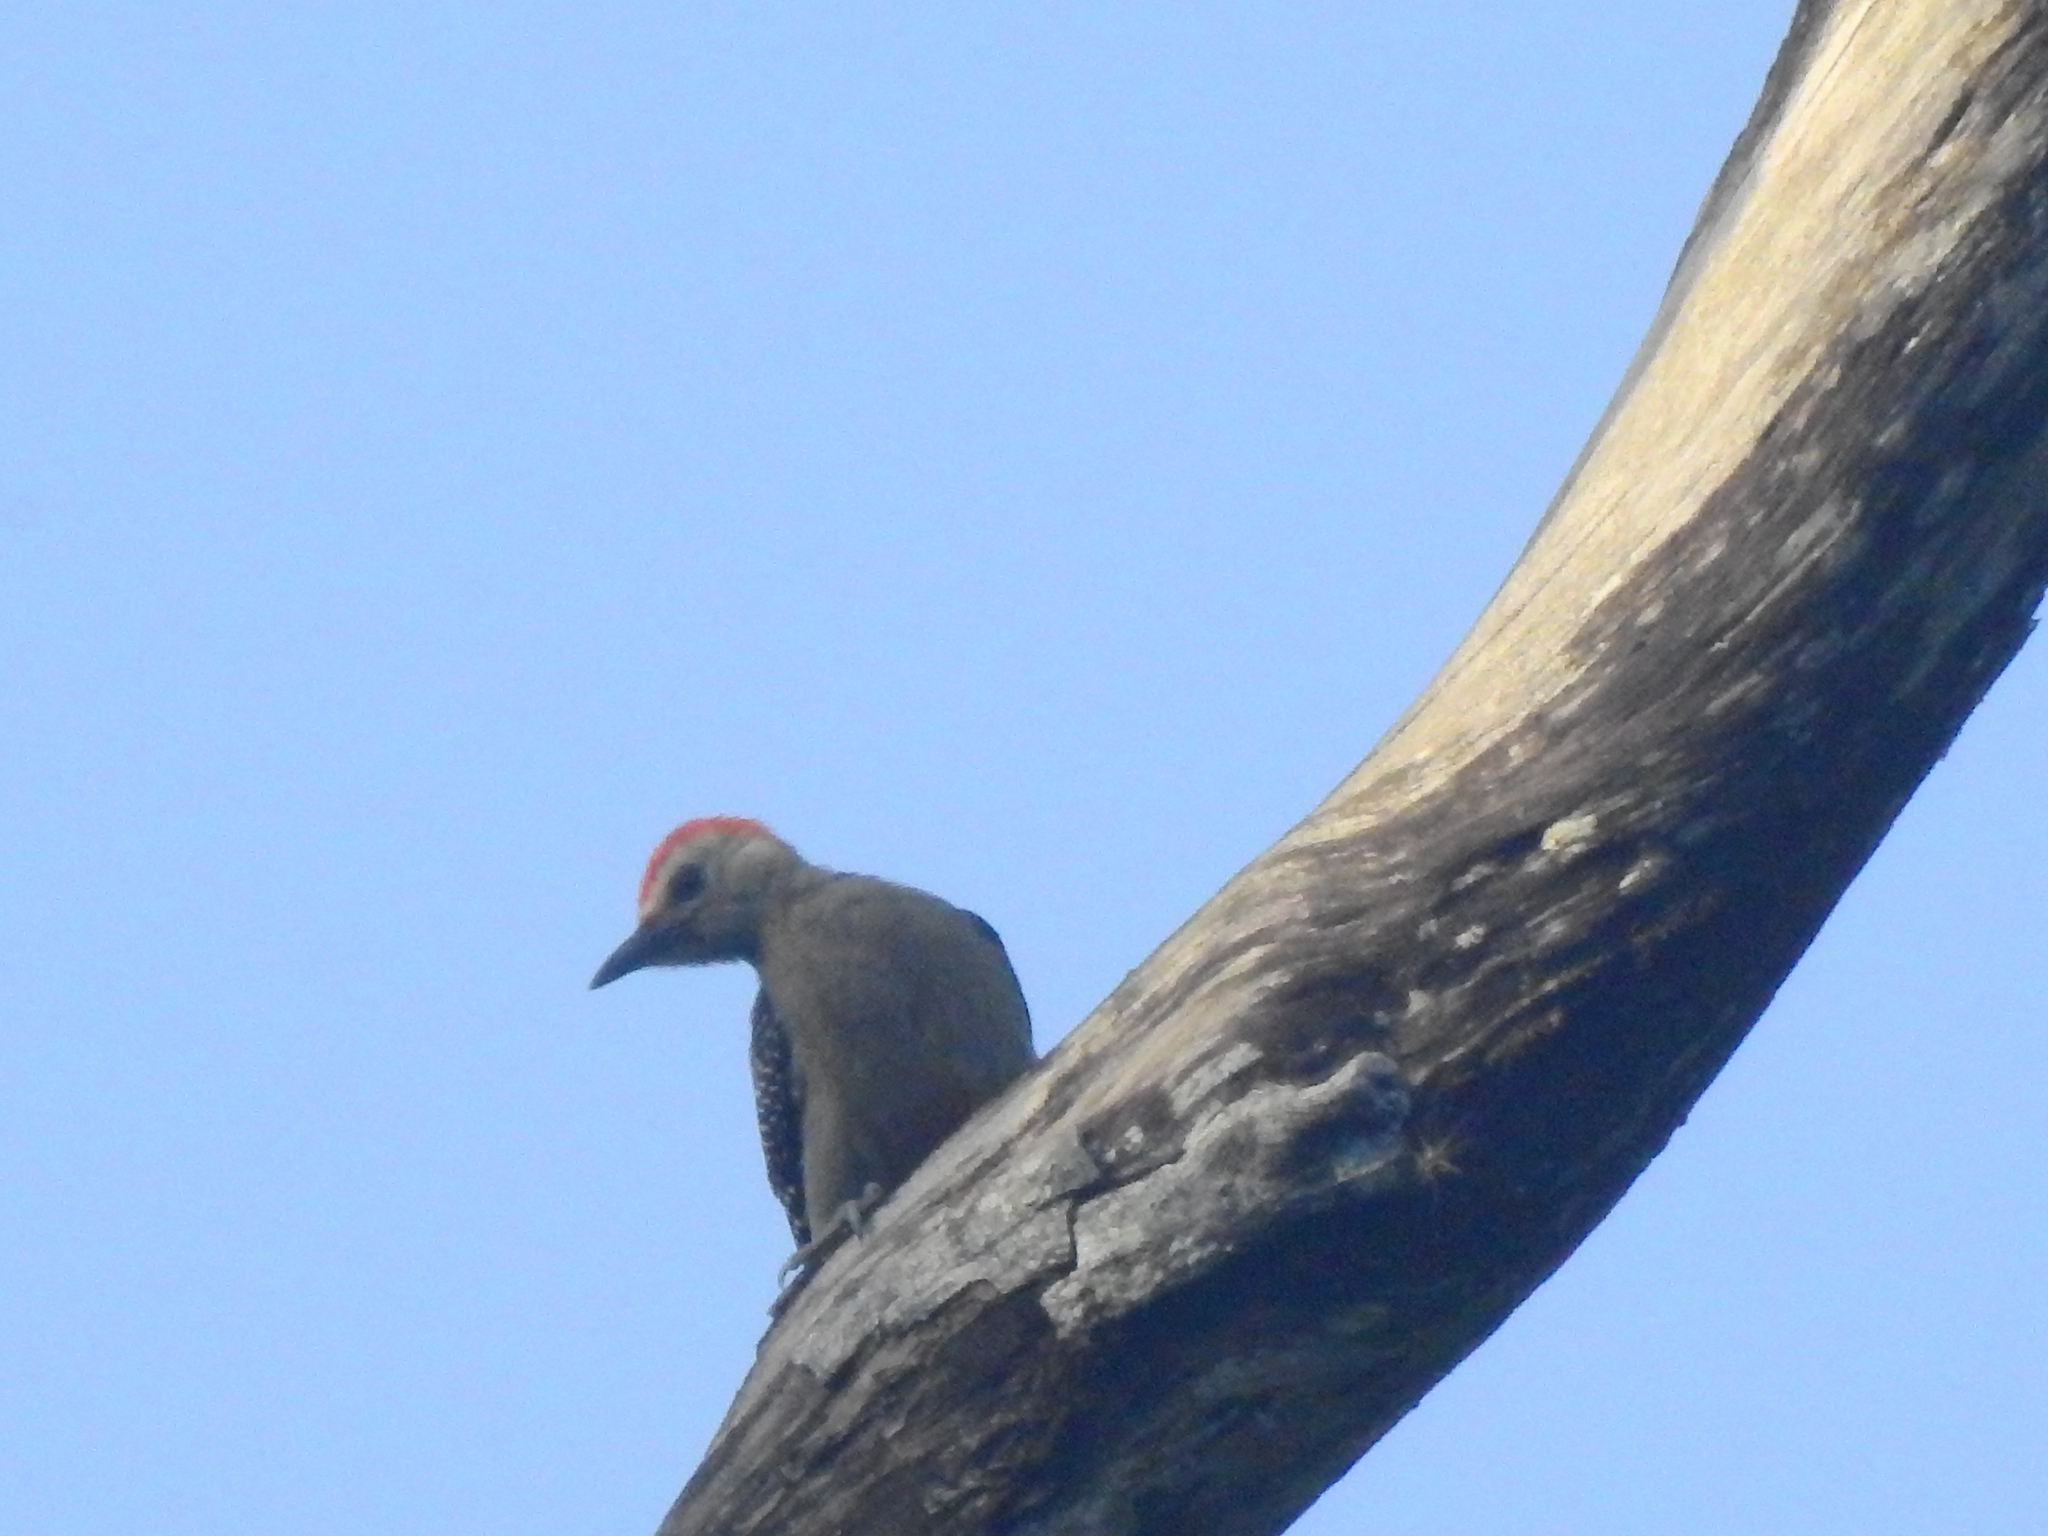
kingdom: Animalia
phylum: Chordata
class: Aves
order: Piciformes
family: Picidae
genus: Melanerpes
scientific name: Melanerpes aurifrons
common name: Golden-fronted woodpecker
